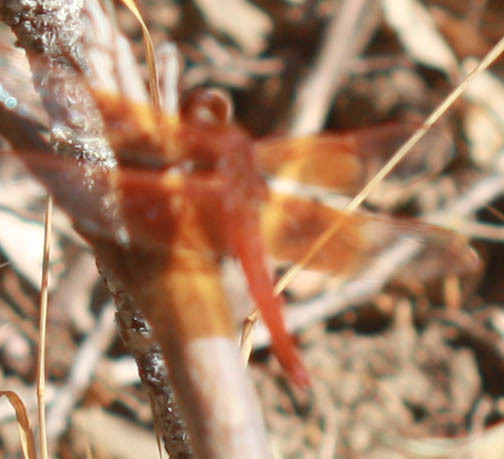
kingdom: Animalia
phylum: Arthropoda
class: Insecta
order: Odonata
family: Libellulidae
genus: Libellula
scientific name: Libellula saturata
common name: Flame skimmer
